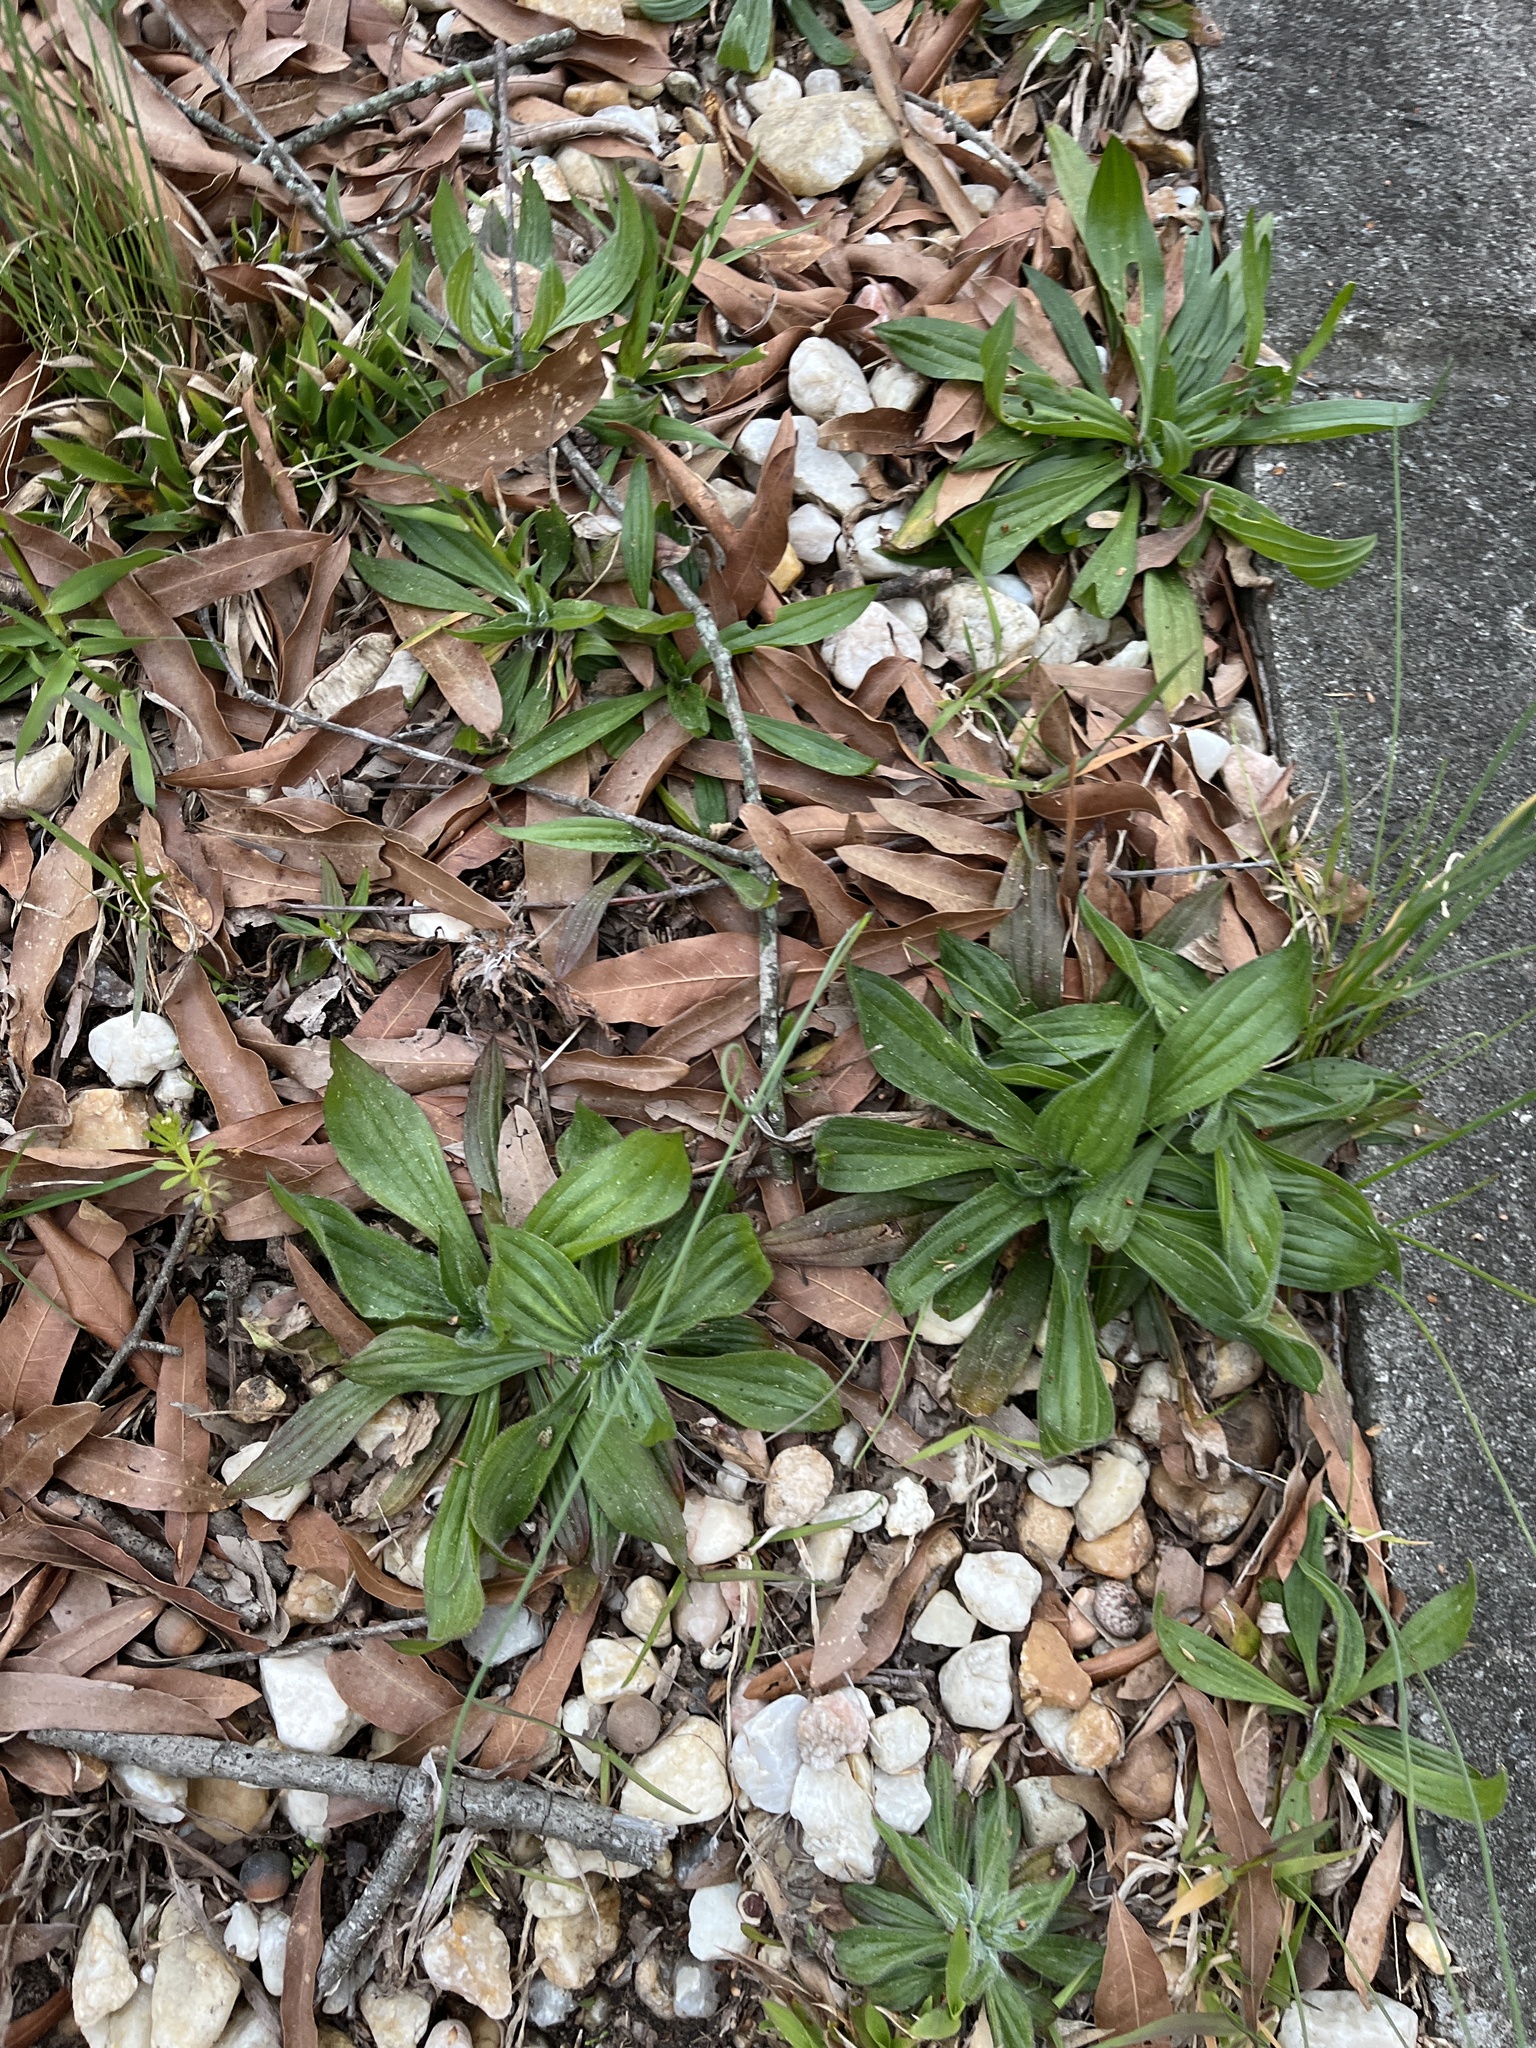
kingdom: Plantae
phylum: Tracheophyta
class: Magnoliopsida
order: Lamiales
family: Plantaginaceae
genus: Plantago
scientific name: Plantago lanceolata
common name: Ribwort plantain
